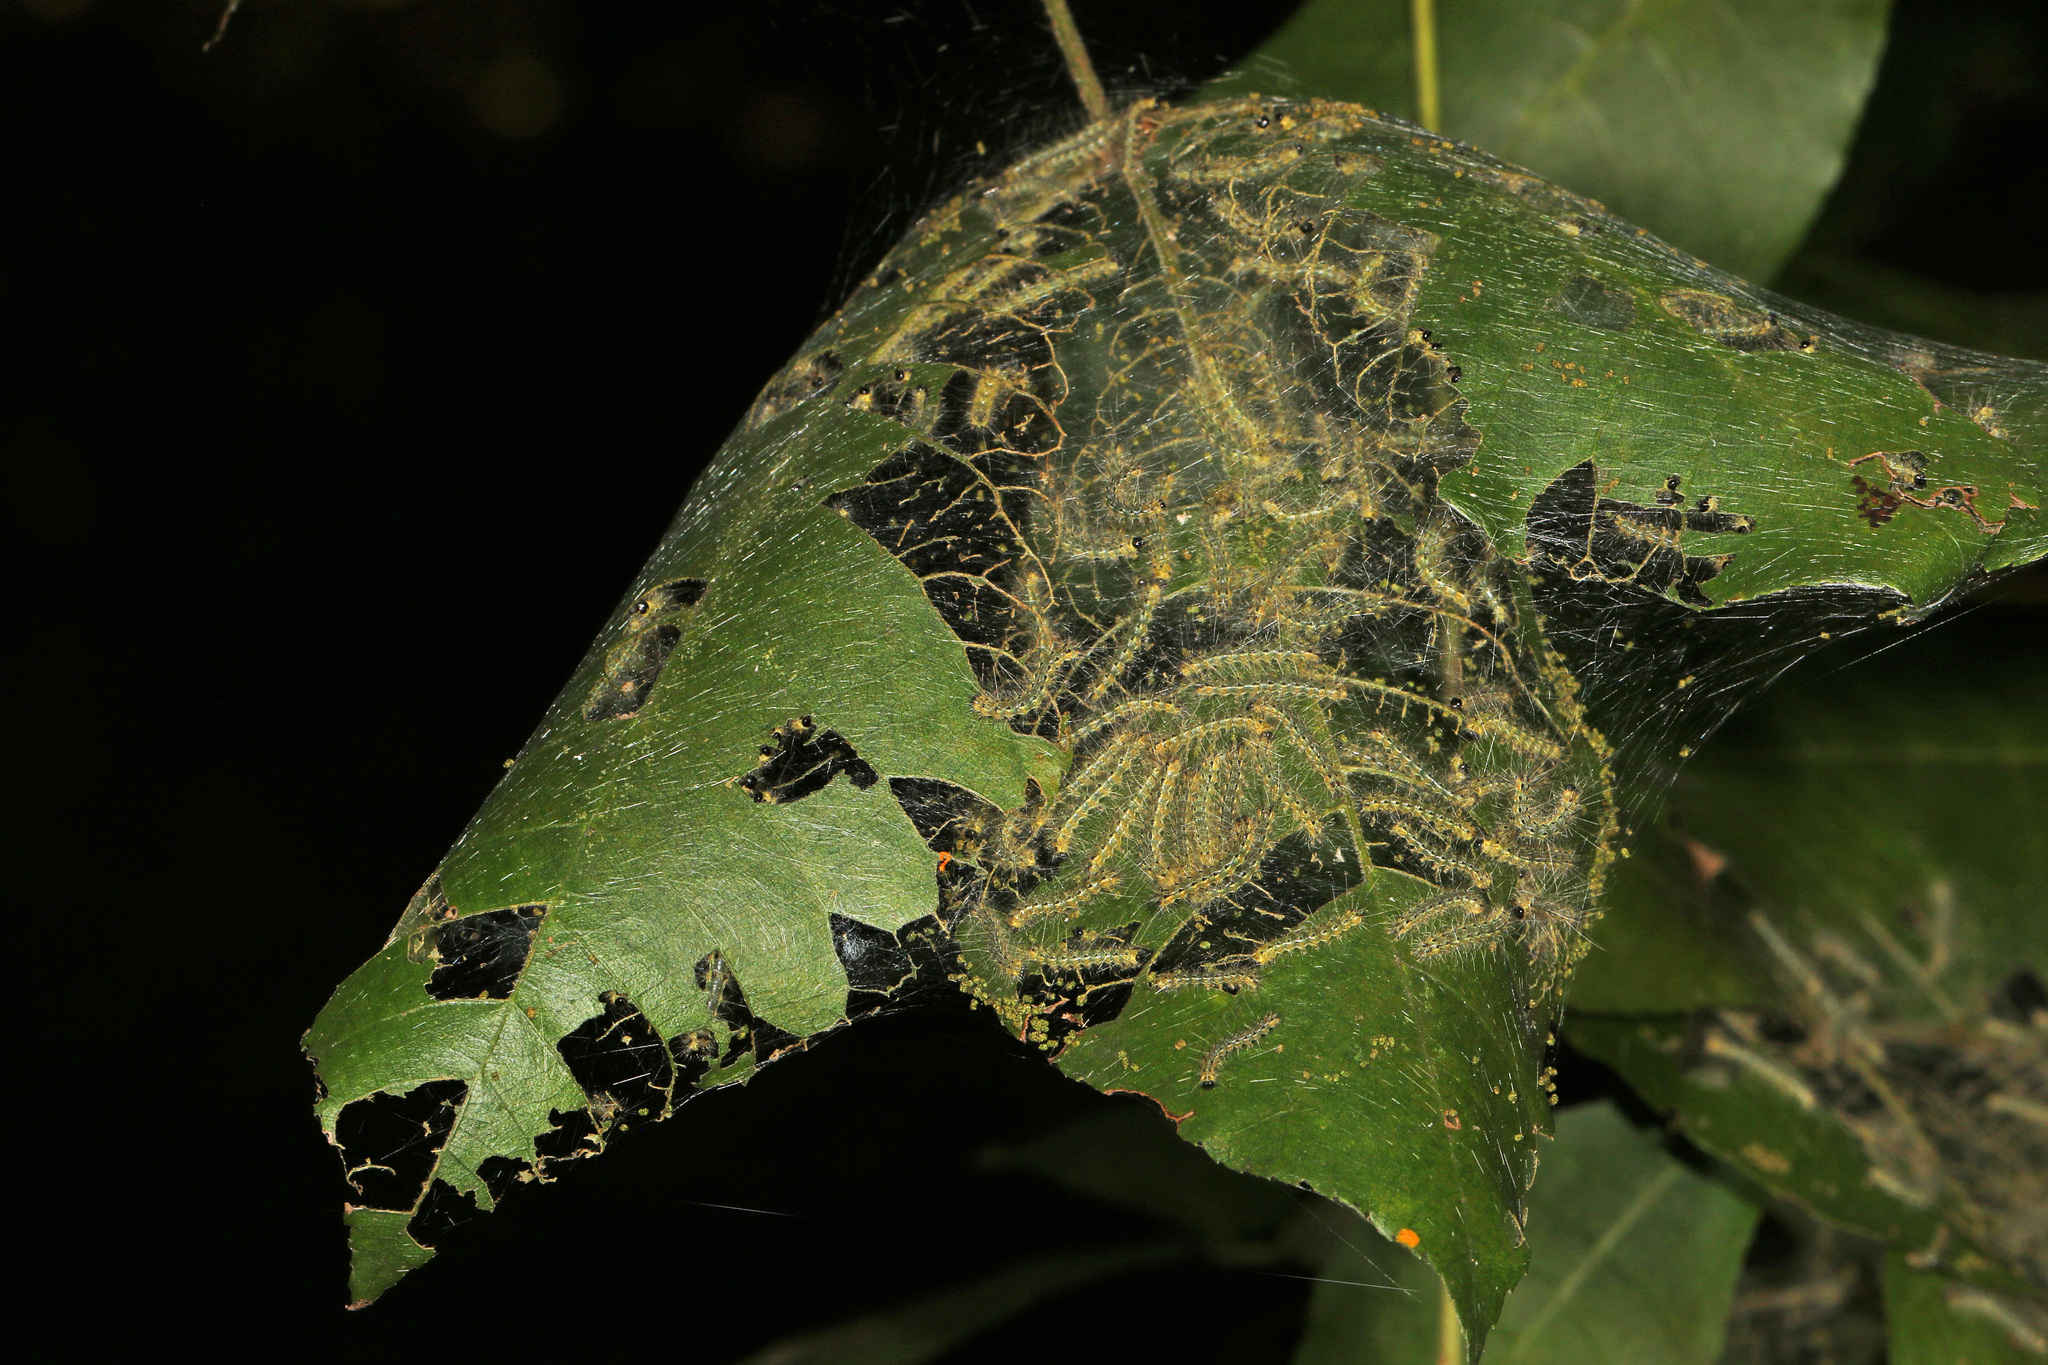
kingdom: Animalia
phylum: Arthropoda
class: Insecta
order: Lepidoptera
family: Erebidae
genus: Hyphantria
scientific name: Hyphantria cunea
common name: American white moth
